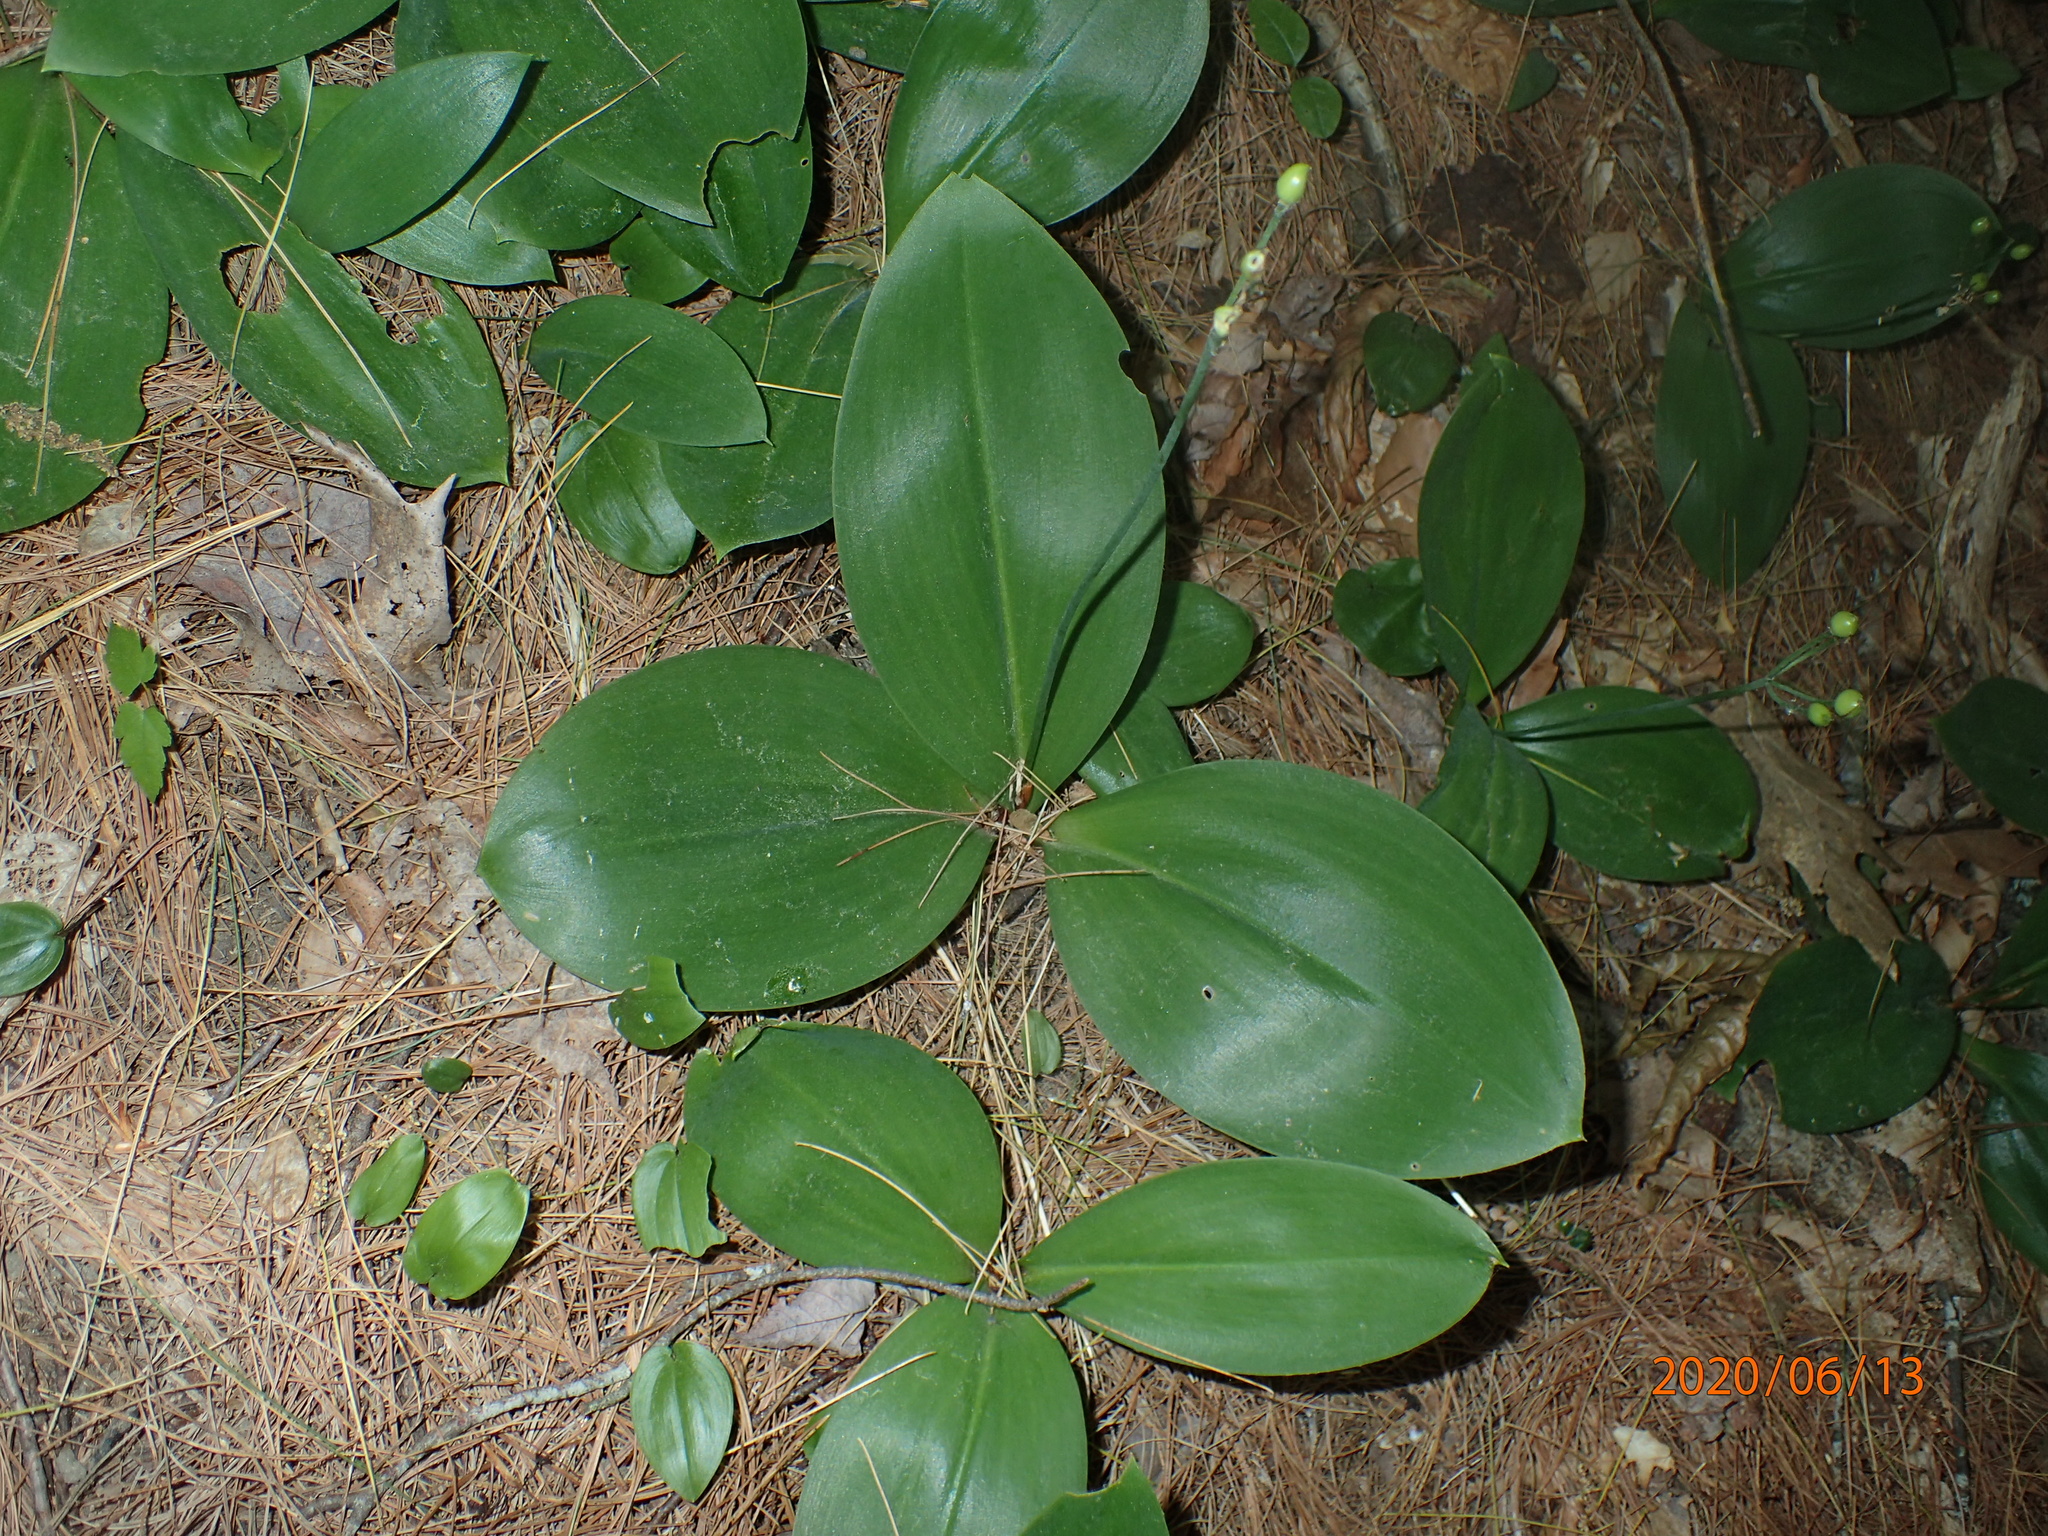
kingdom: Plantae
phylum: Tracheophyta
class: Liliopsida
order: Liliales
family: Liliaceae
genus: Clintonia
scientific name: Clintonia borealis
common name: Yellow clintonia
